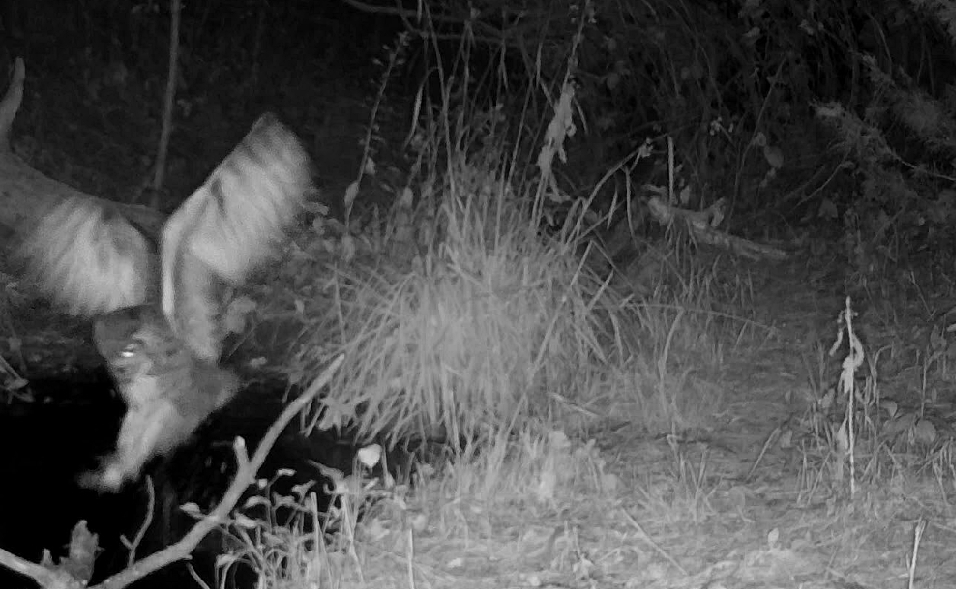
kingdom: Animalia
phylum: Chordata
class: Aves
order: Strigiformes
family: Strigidae
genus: Bubo
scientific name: Bubo virginianus
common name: Great horned owl
